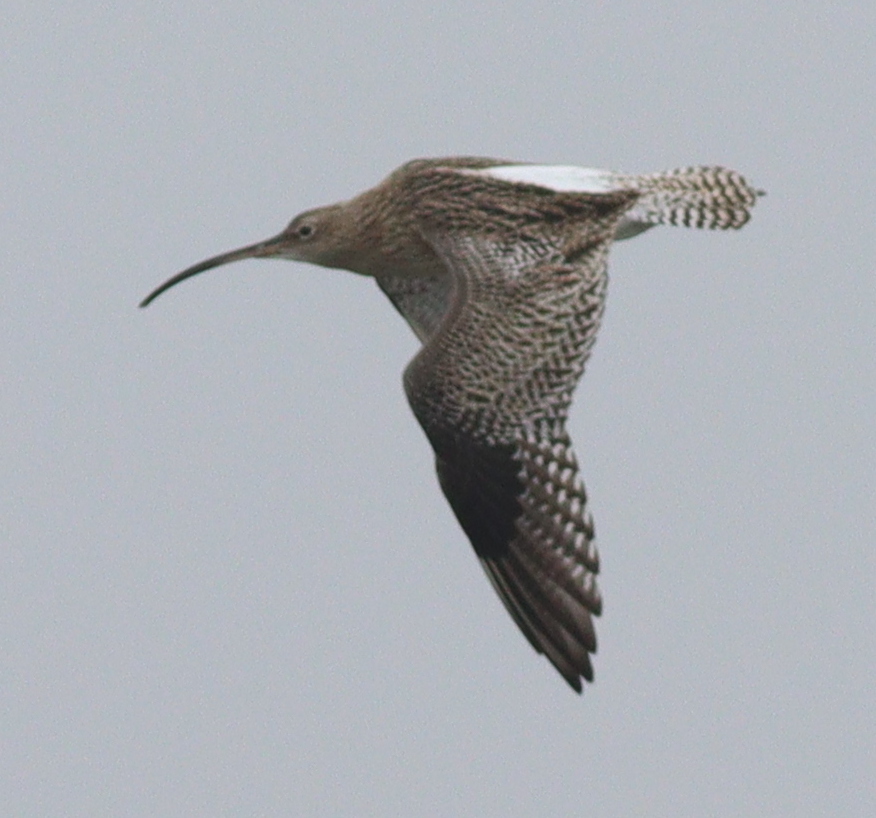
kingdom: Animalia
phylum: Chordata
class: Aves
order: Charadriiformes
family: Scolopacidae
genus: Numenius
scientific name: Numenius arquata
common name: Eurasian curlew
